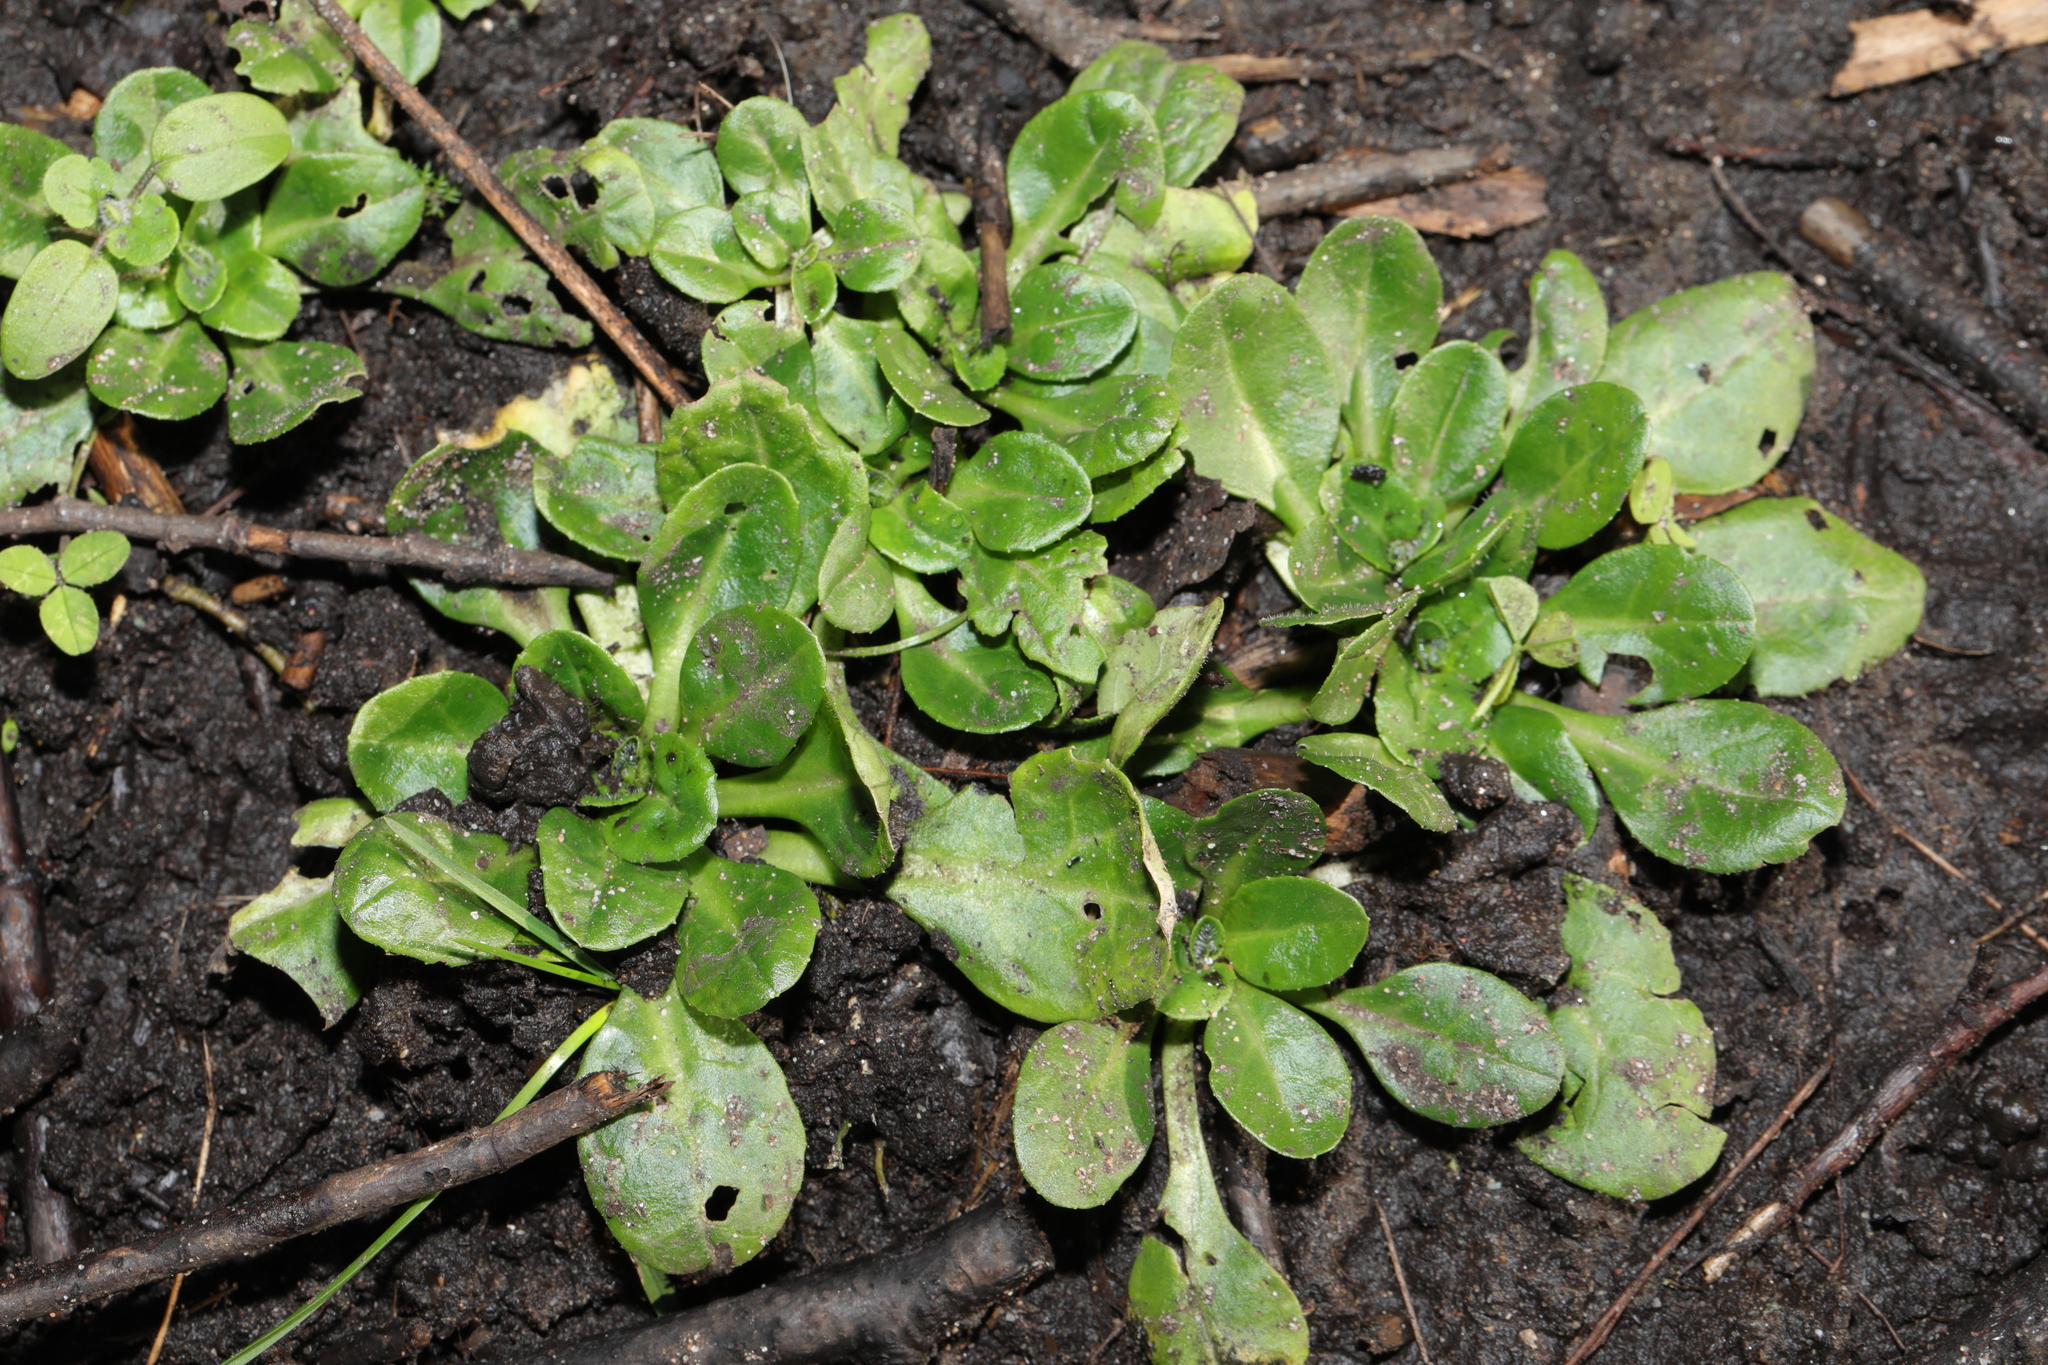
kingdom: Plantae
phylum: Tracheophyta
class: Magnoliopsida
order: Asterales
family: Asteraceae
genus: Bellis
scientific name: Bellis perennis
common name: Lawndaisy
